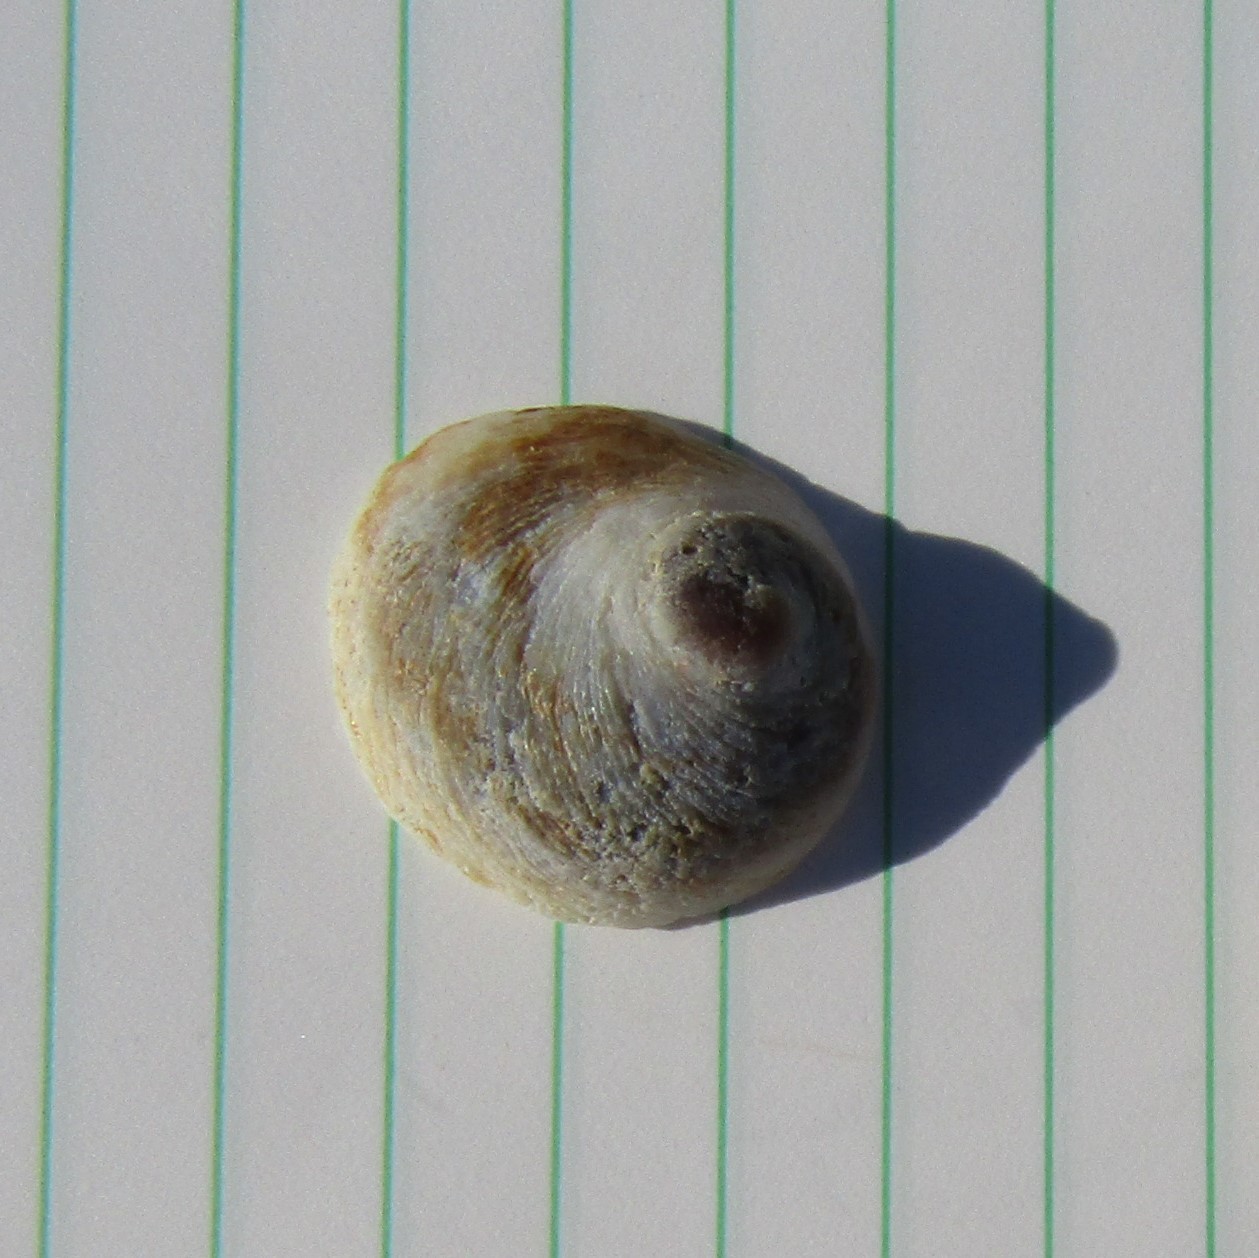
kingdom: Animalia
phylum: Mollusca
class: Gastropoda
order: Littorinimorpha
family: Calyptraeidae
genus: Sigapatella
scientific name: Sigapatella novaezelandiae
